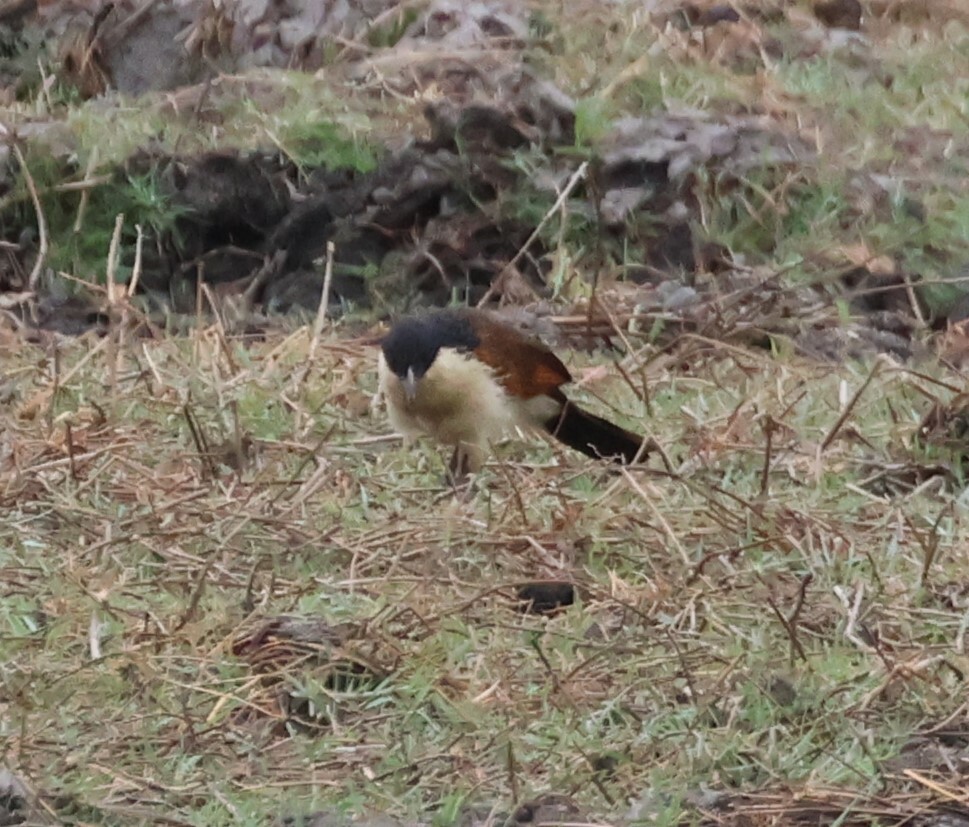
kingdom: Animalia
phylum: Chordata
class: Aves
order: Cuculiformes
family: Cuculidae
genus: Centropus
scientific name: Centropus cupreicaudus
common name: Coppery-tailed coucal
